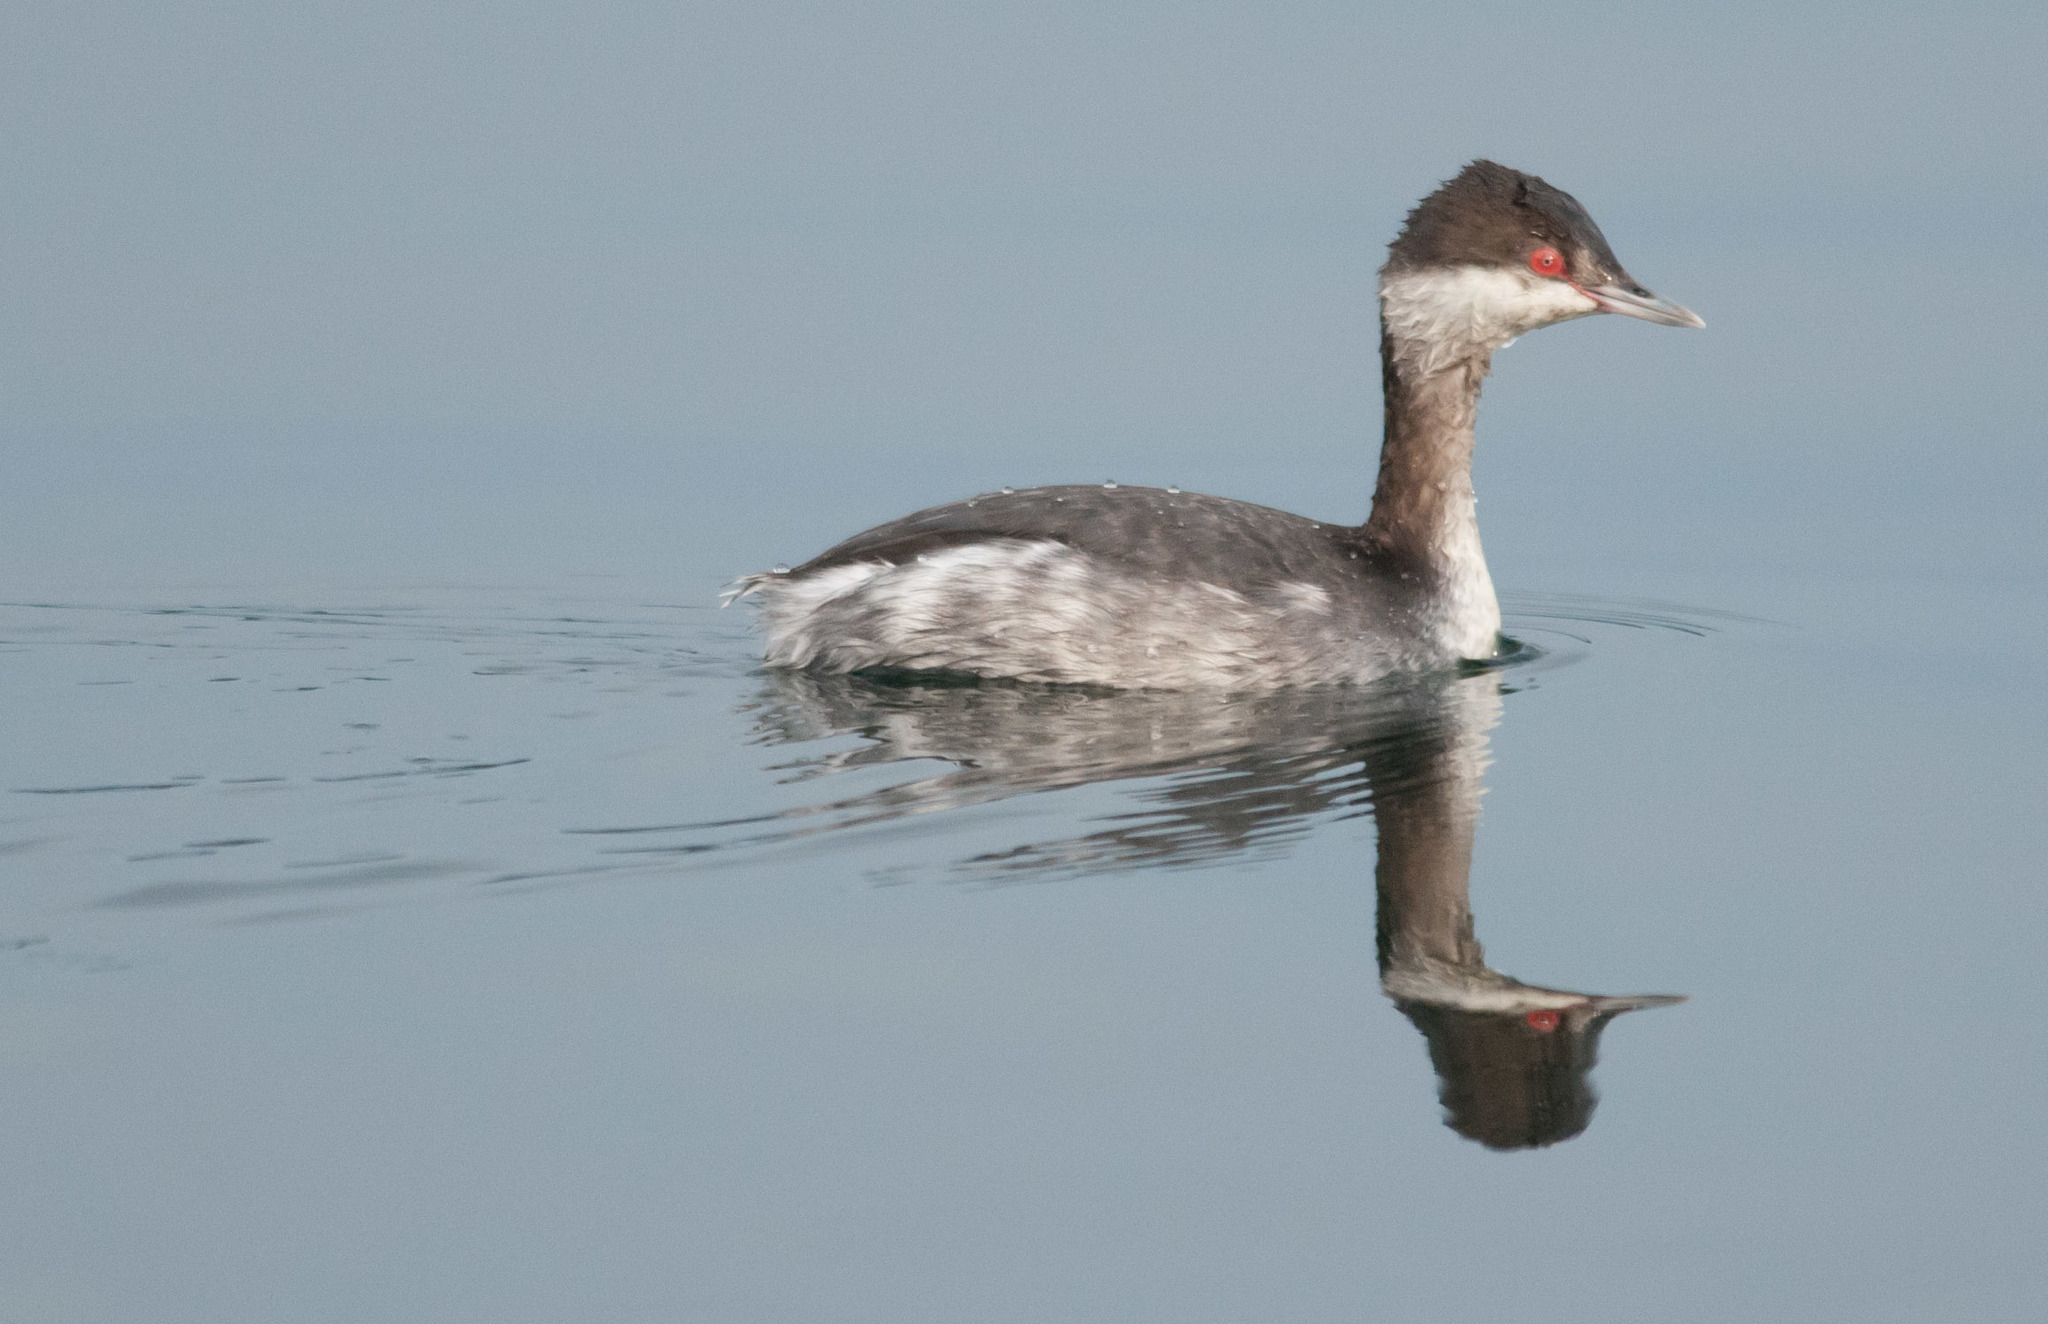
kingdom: Animalia
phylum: Chordata
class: Aves
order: Podicipediformes
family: Podicipedidae
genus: Podiceps
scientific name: Podiceps auritus
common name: Horned grebe
